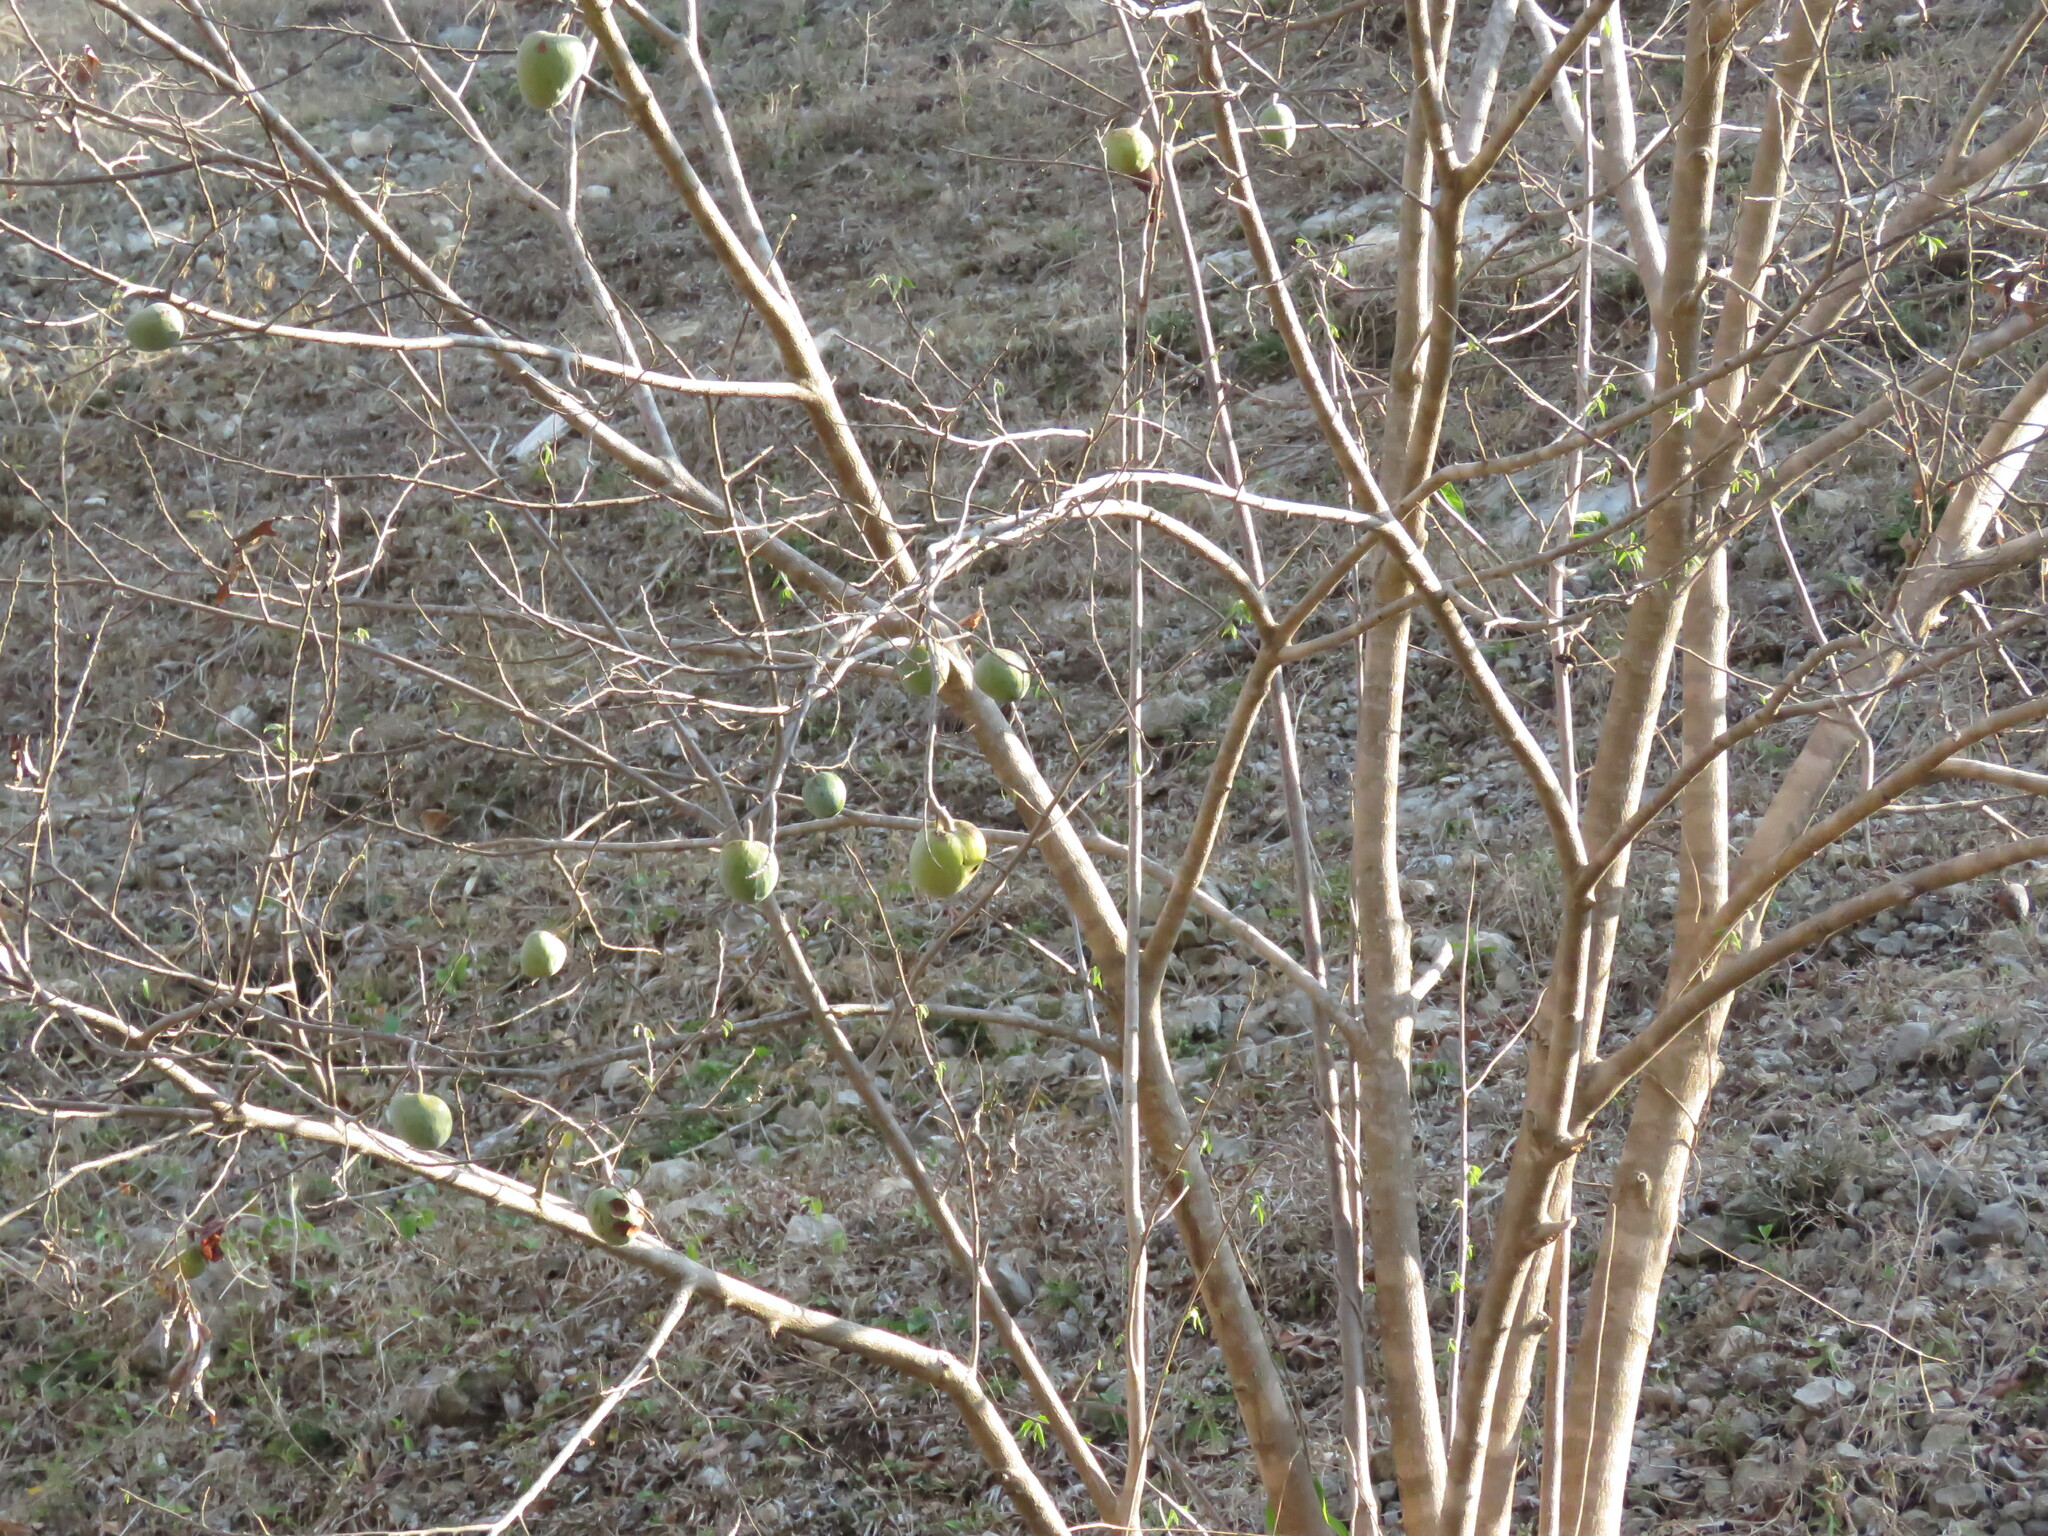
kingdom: Plantae
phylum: Tracheophyta
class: Magnoliopsida
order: Magnoliales
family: Annonaceae
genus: Annona
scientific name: Annona glabra
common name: Monkey apple
